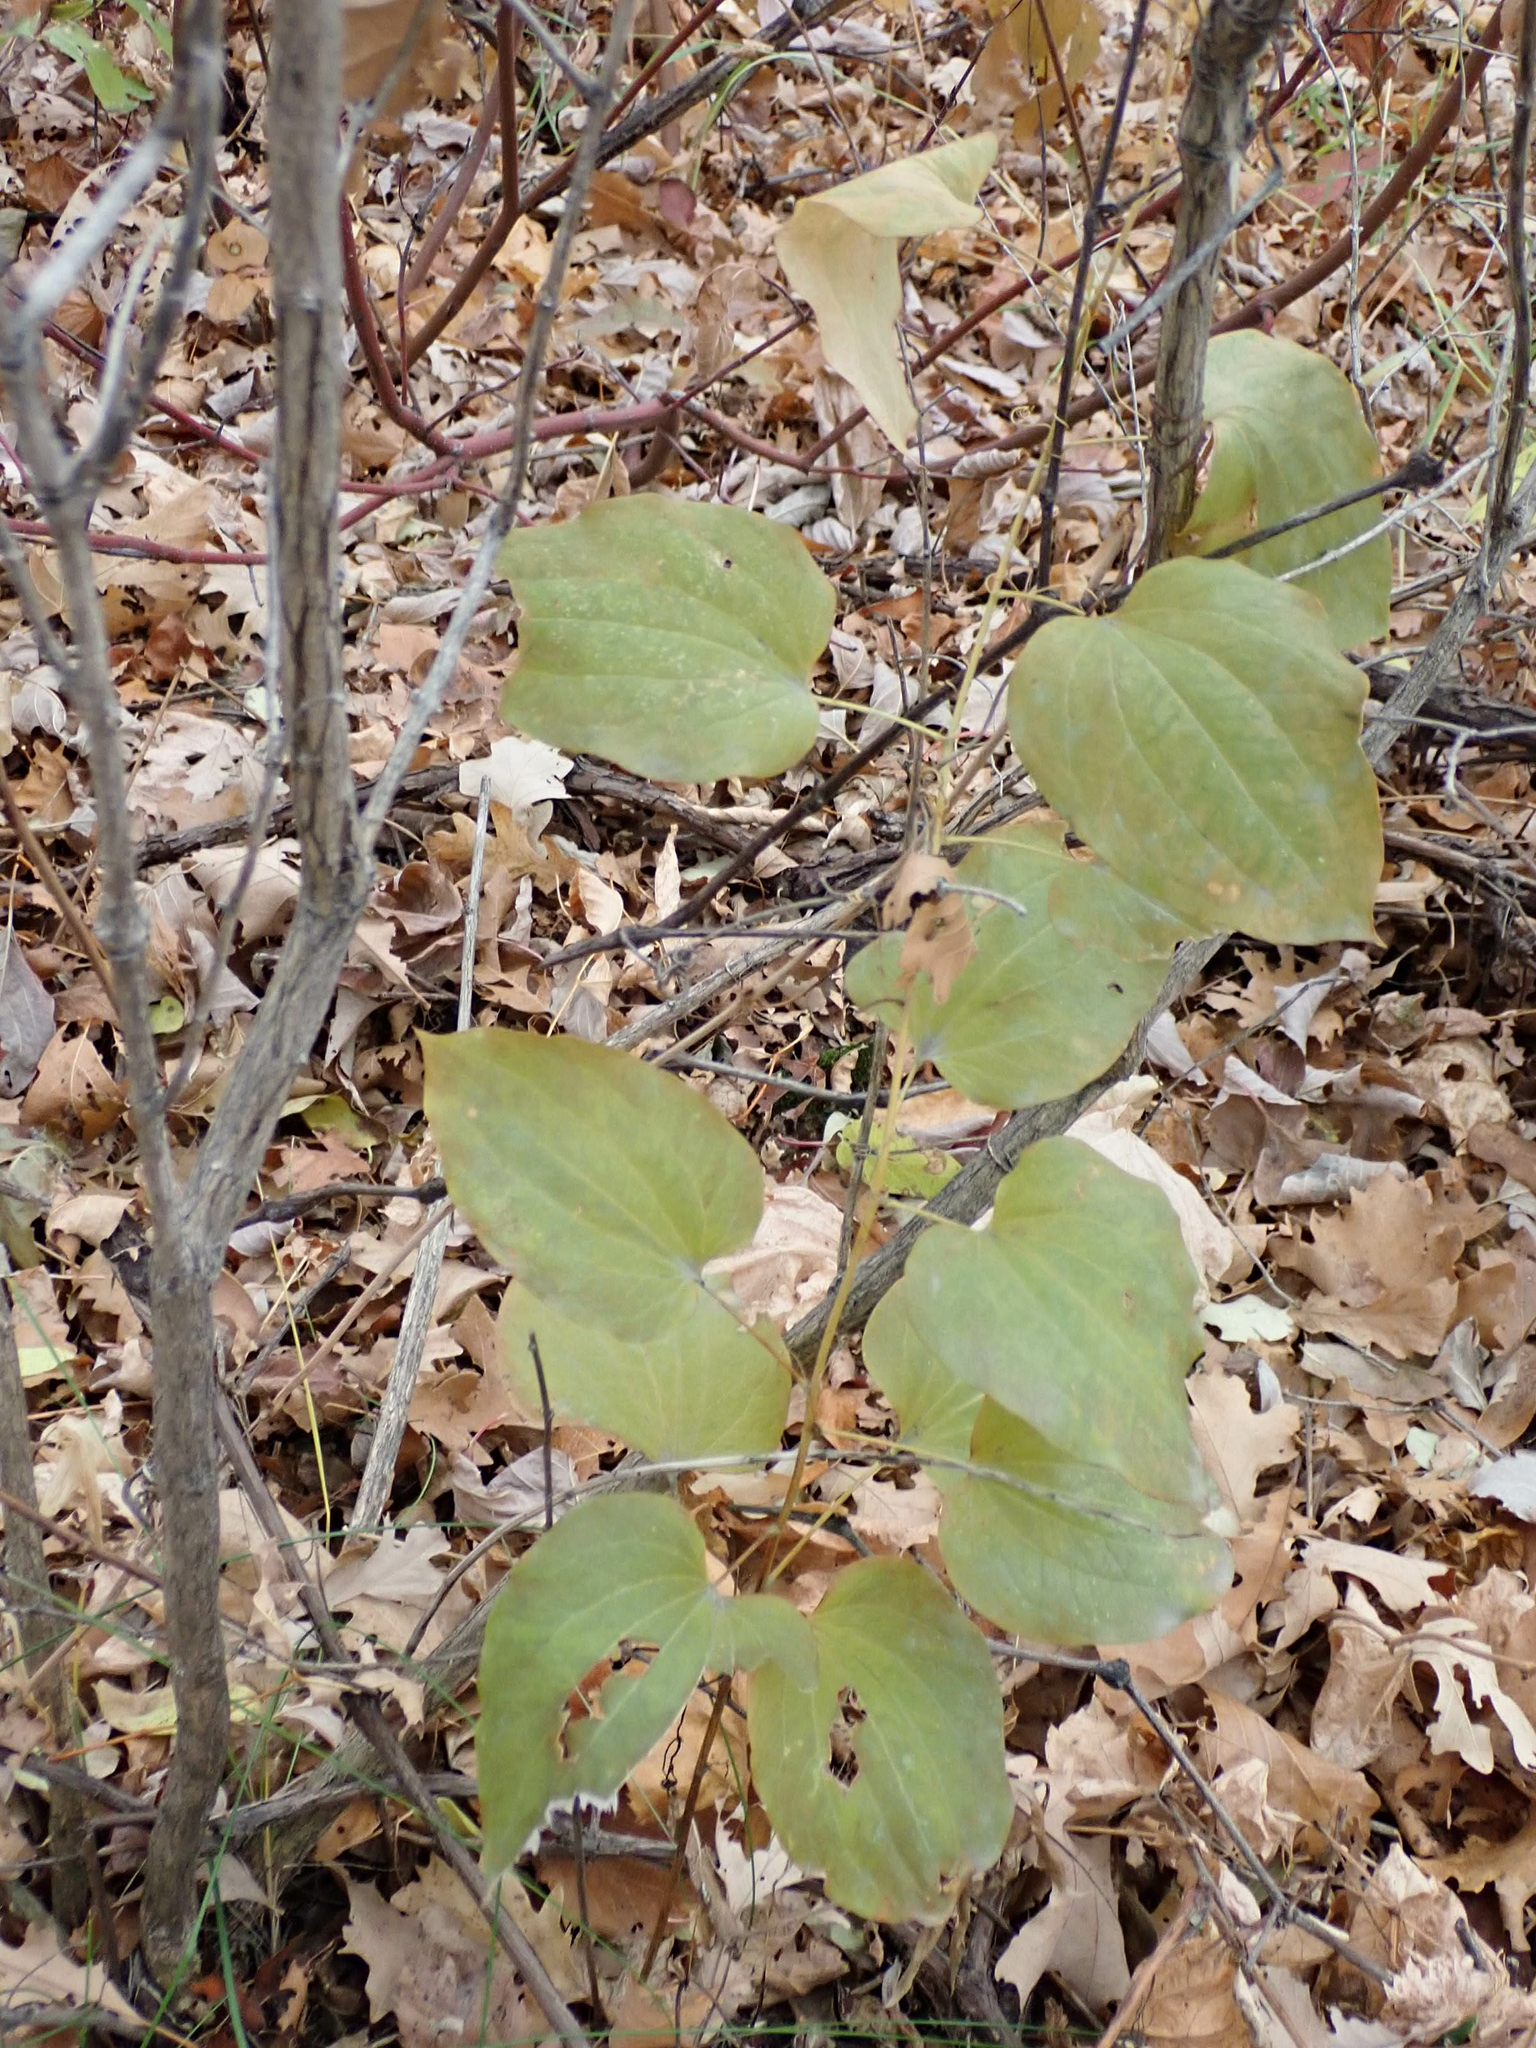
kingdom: Plantae
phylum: Tracheophyta
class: Liliopsida
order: Liliales
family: Smilacaceae
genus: Smilax
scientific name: Smilax lasioneura
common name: Blue ridge carrionflower
